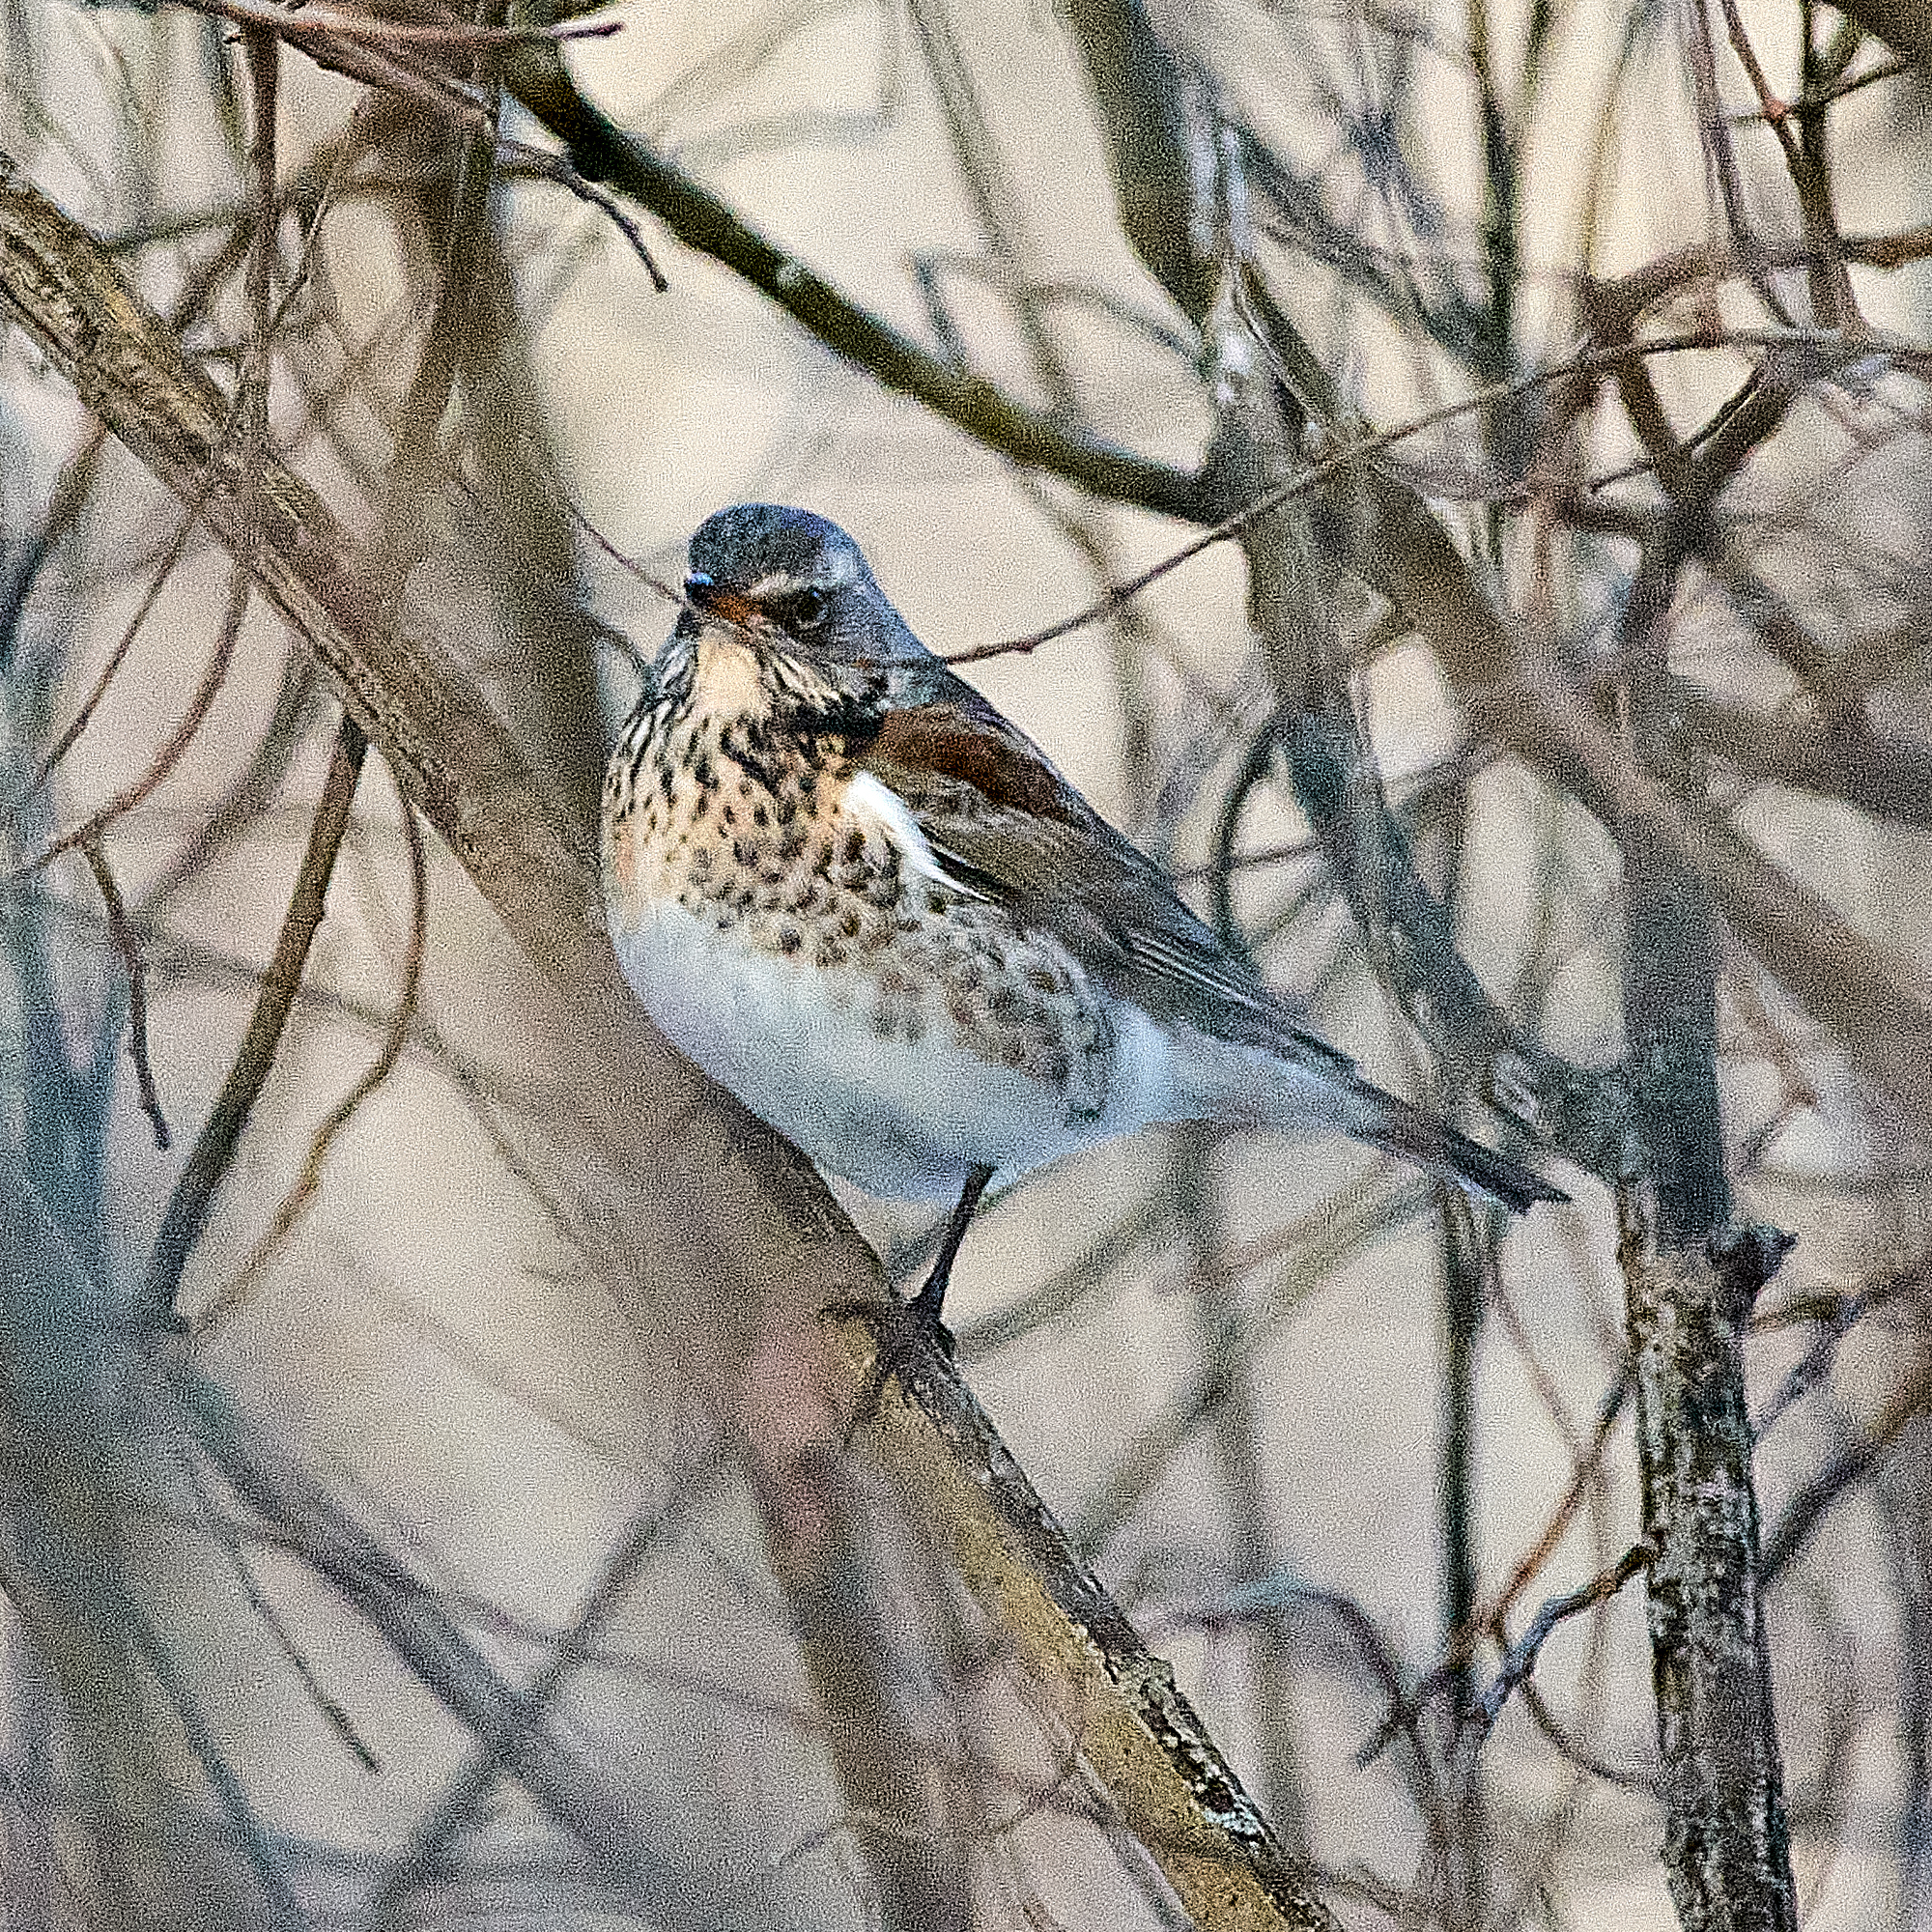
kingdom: Animalia
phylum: Chordata
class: Aves
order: Passeriformes
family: Turdidae
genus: Turdus
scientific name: Turdus pilaris
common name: Fieldfare
